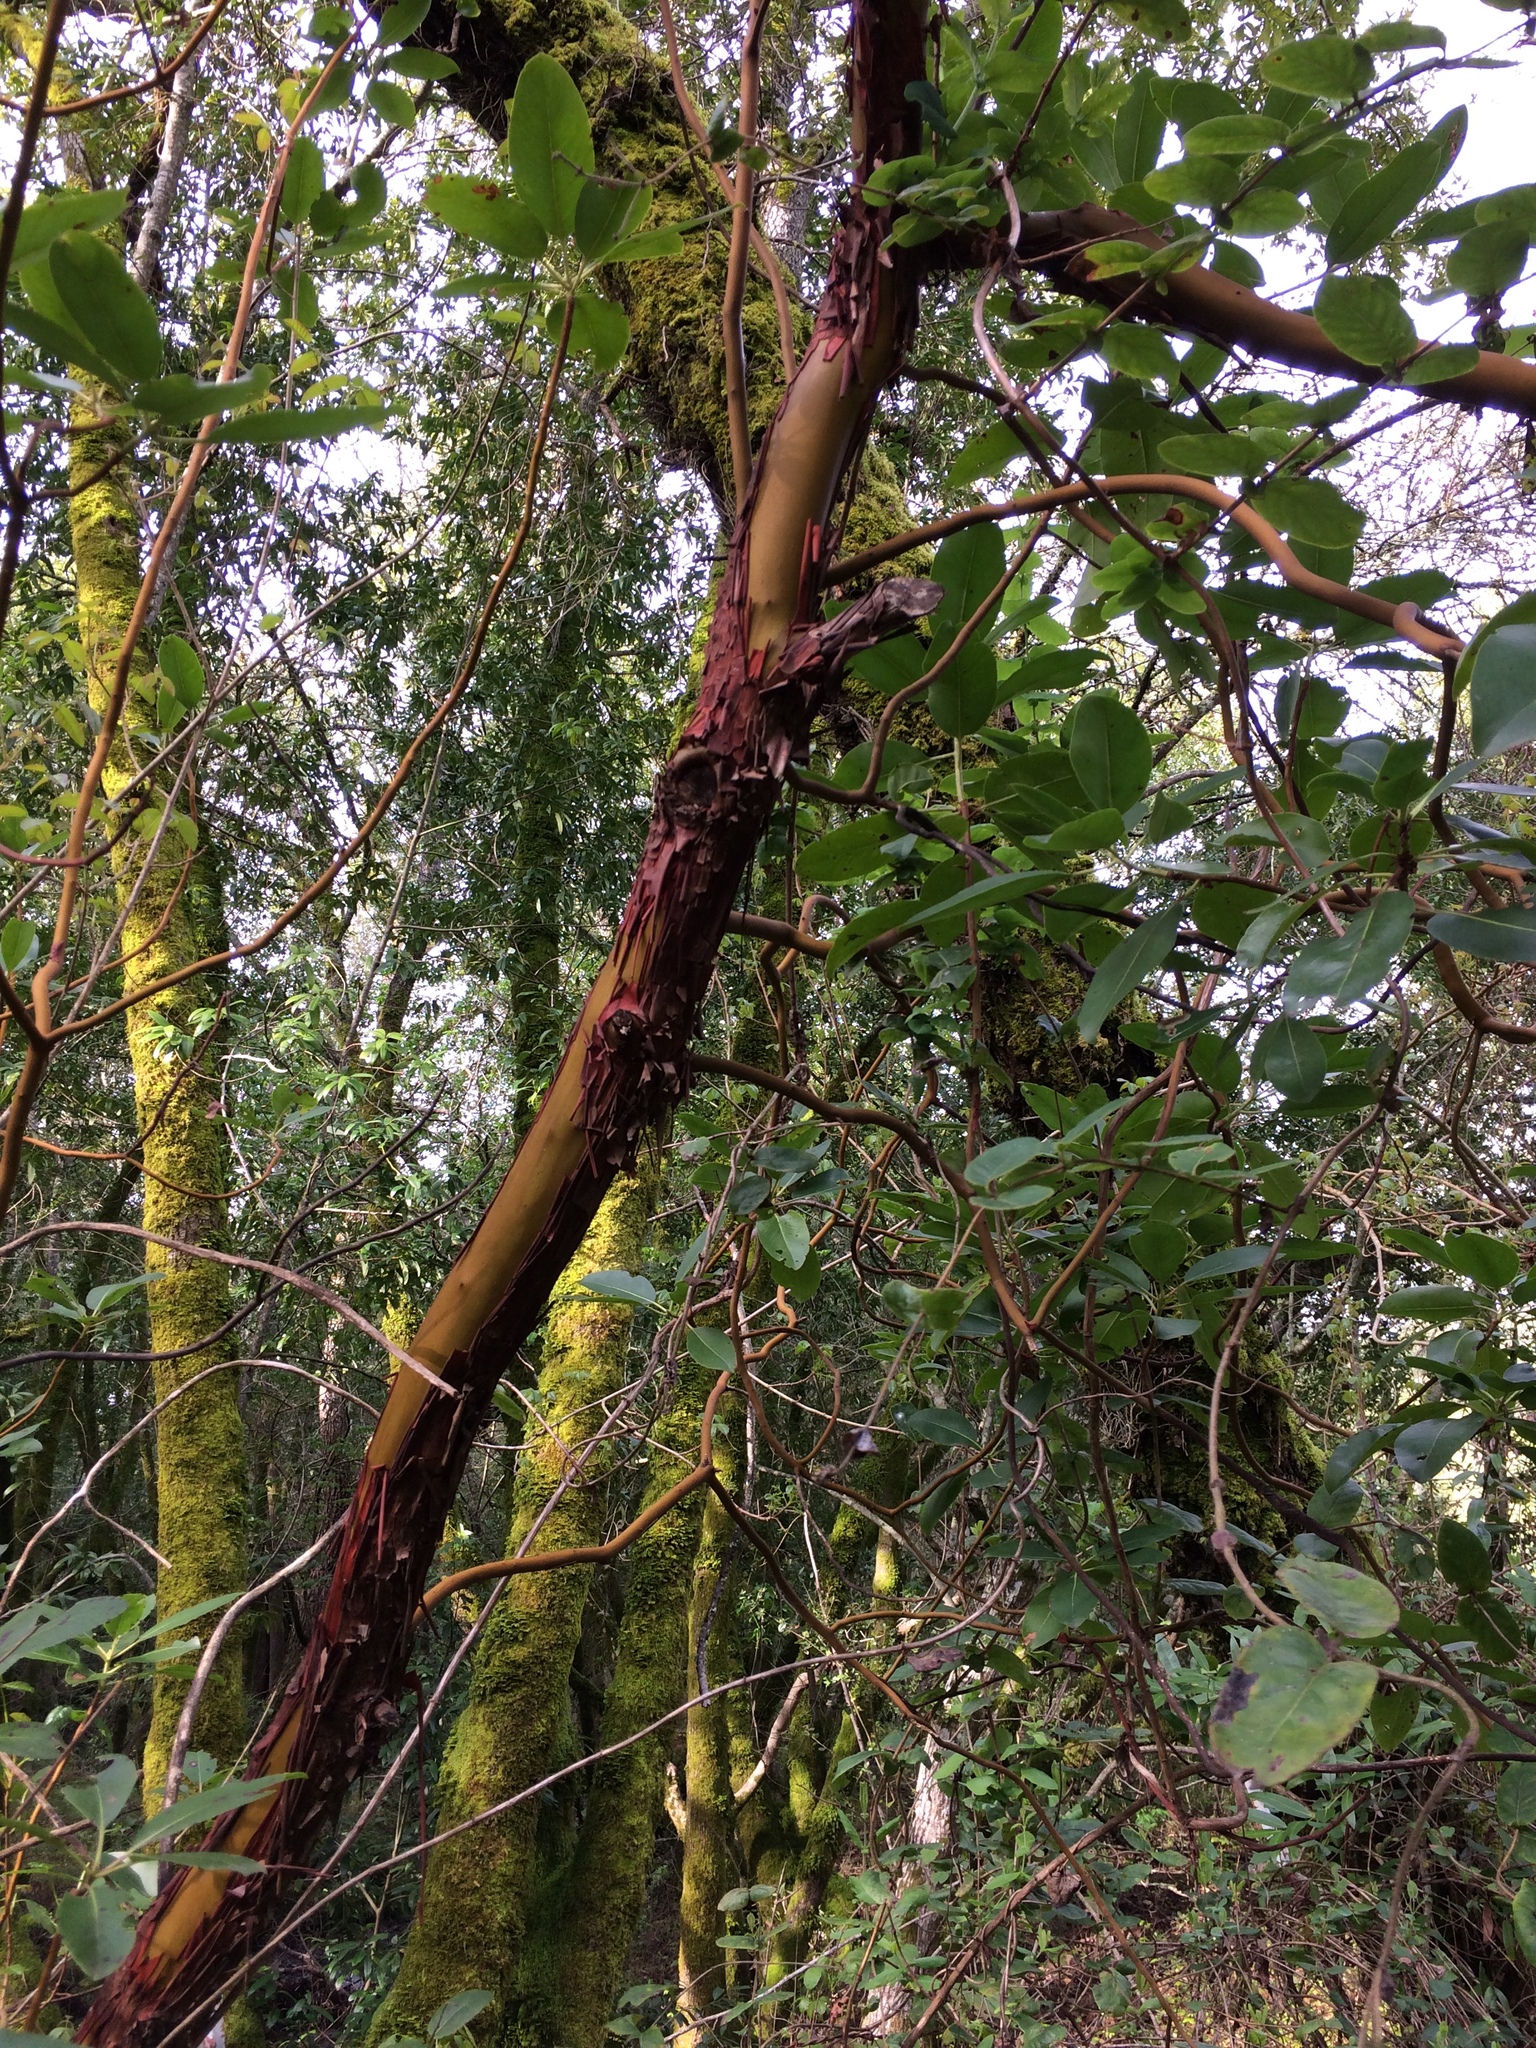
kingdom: Plantae
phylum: Tracheophyta
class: Magnoliopsida
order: Ericales
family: Ericaceae
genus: Arbutus
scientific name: Arbutus menziesii
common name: Pacific madrone
